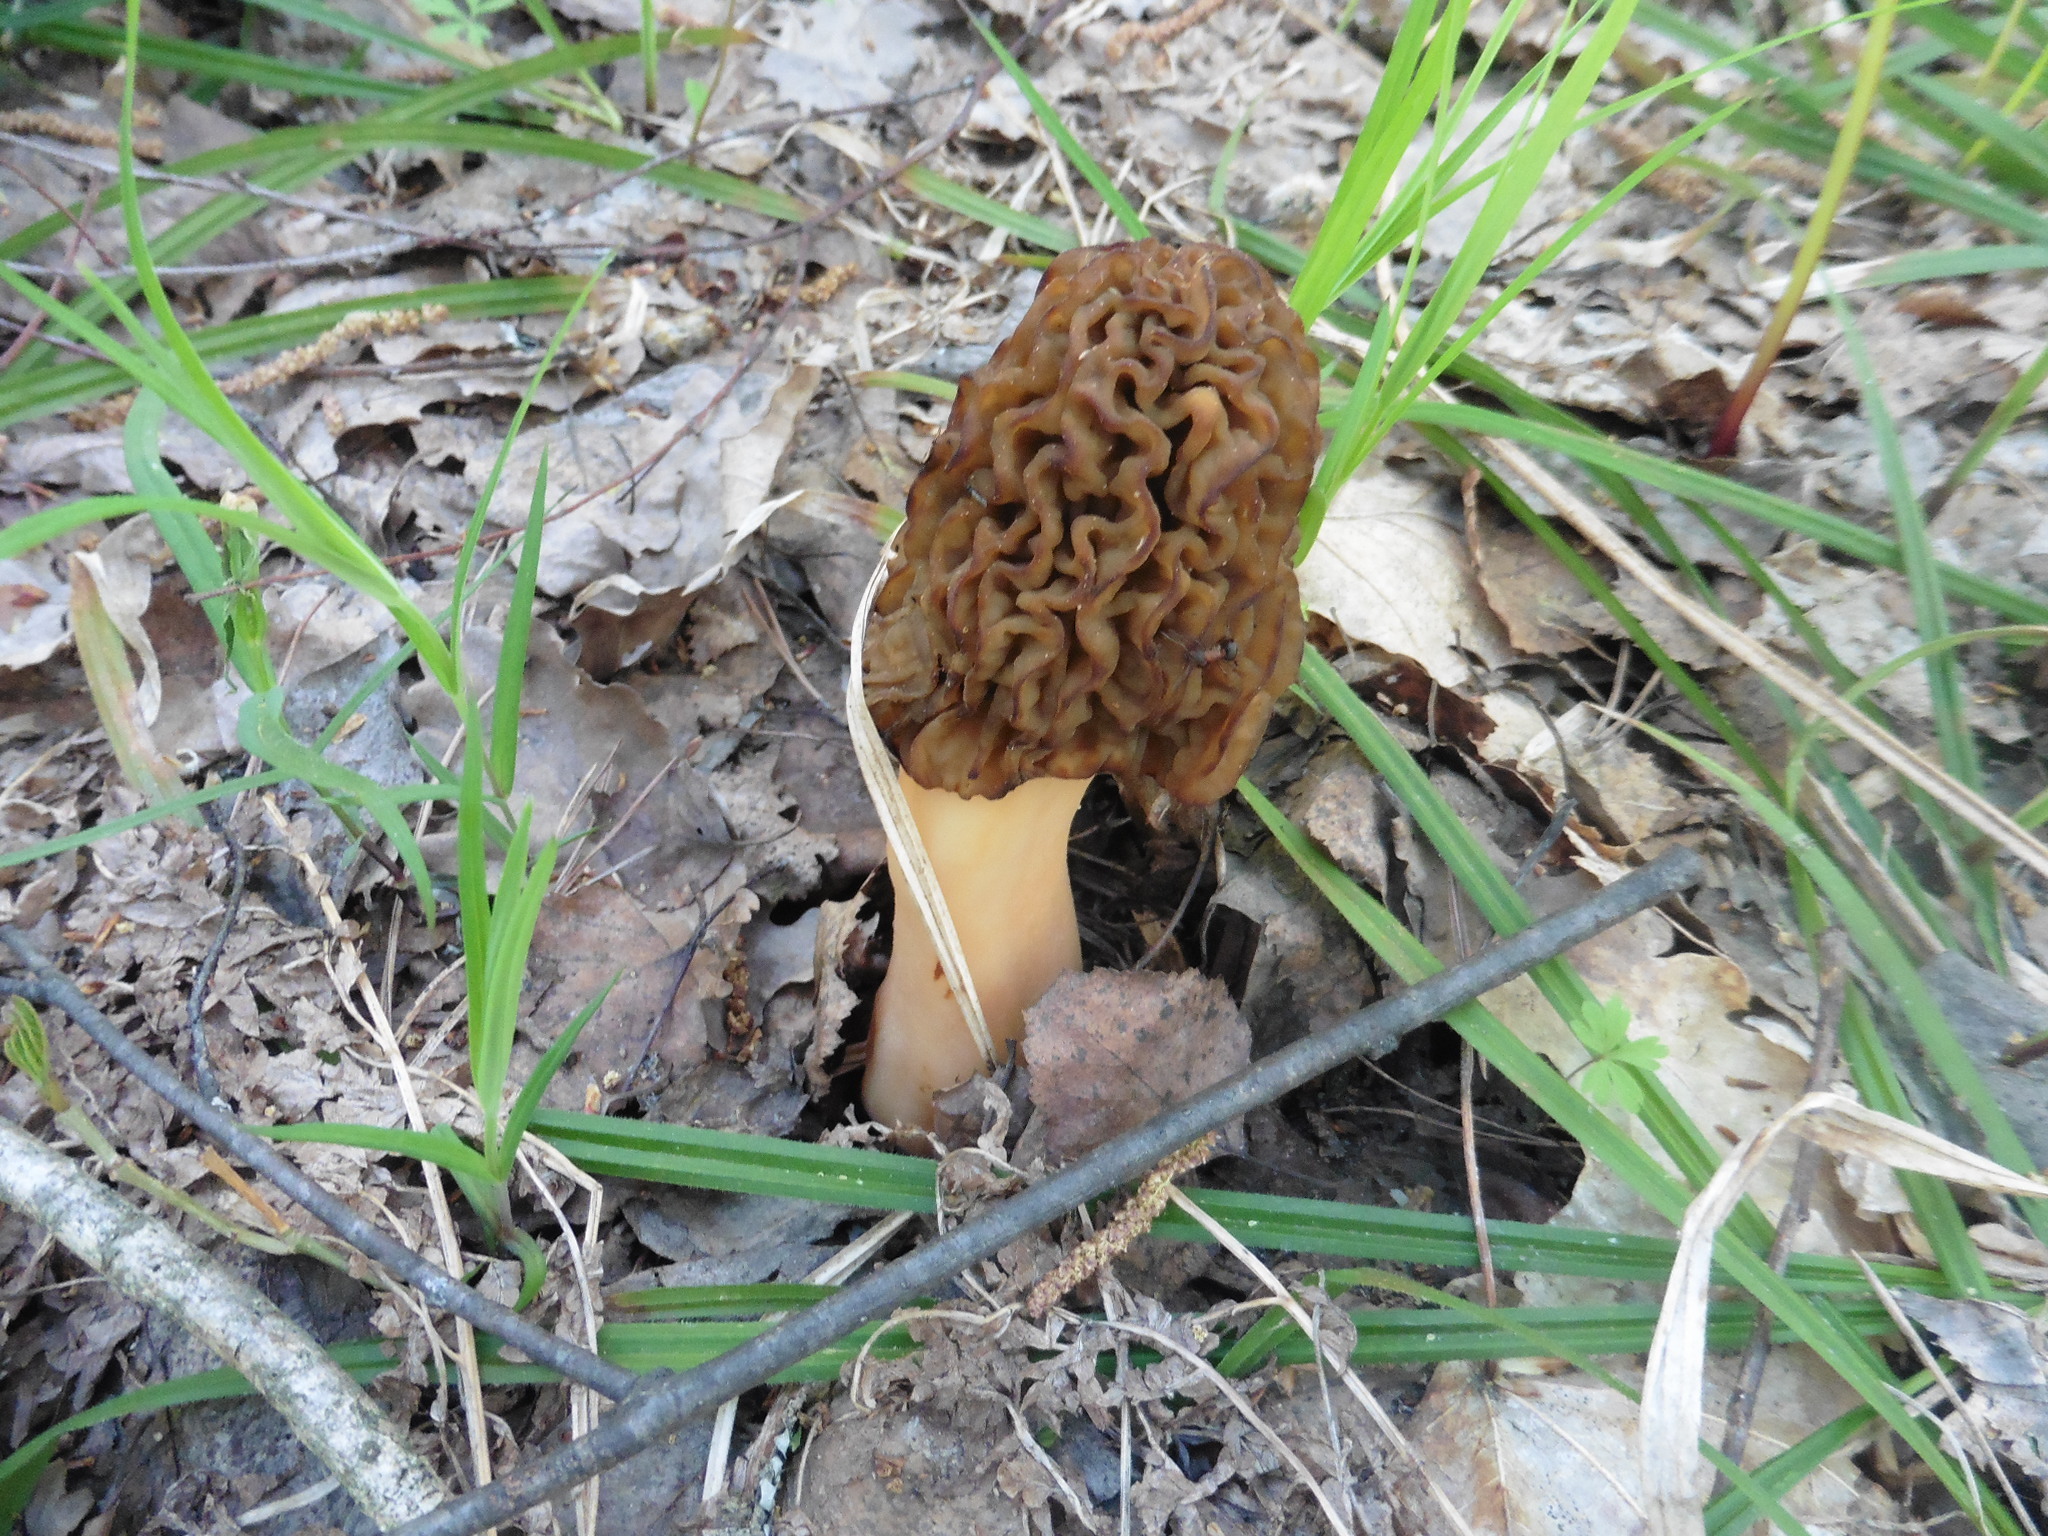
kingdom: Fungi
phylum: Ascomycota
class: Pezizomycetes
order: Pezizales
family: Morchellaceae
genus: Verpa
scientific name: Verpa bohemica
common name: Wrinkled thimble morel
